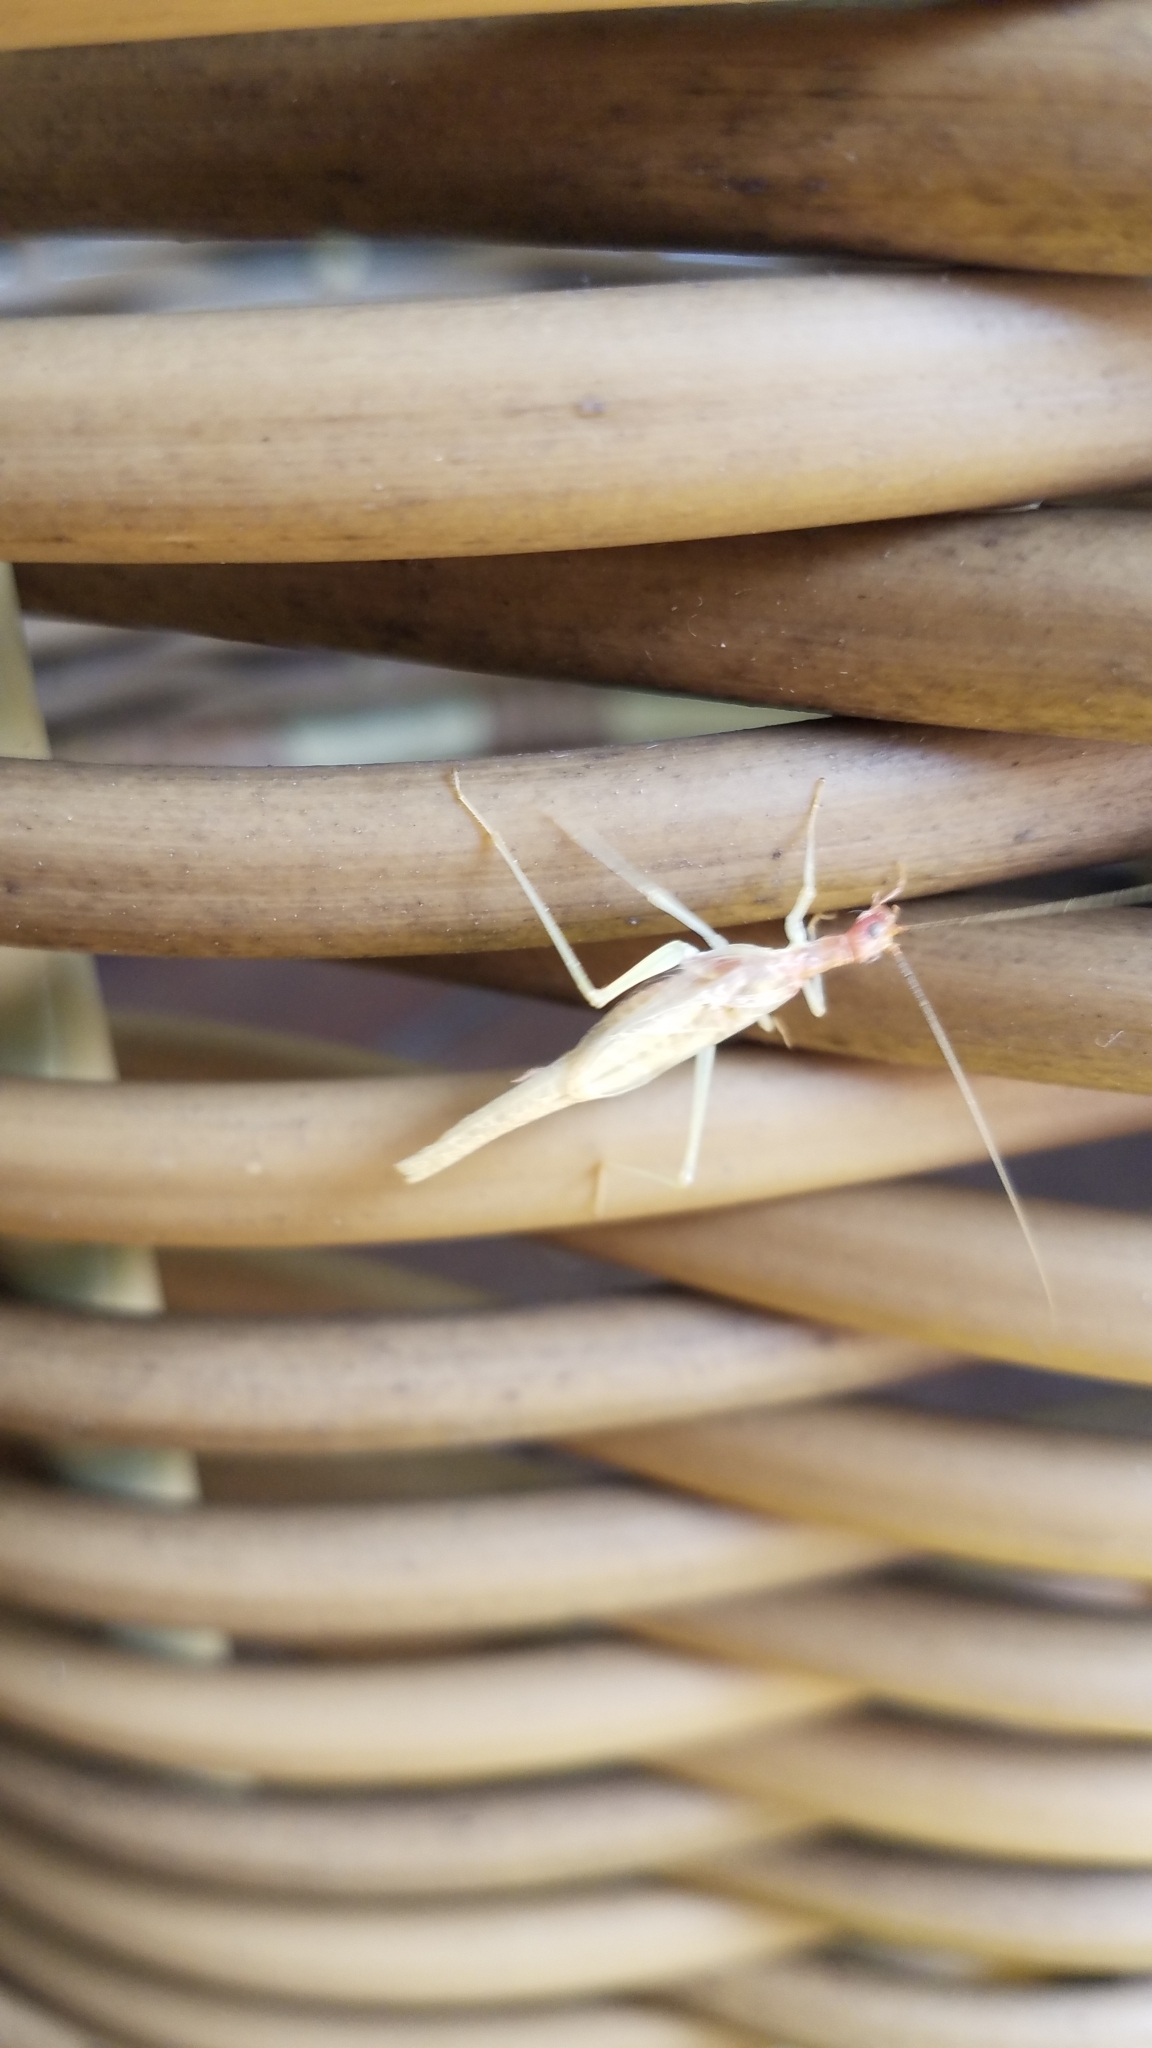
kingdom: Animalia
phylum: Arthropoda
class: Insecta
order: Orthoptera
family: Gryllidae
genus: Neoxabea
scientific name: Neoxabea bipunctata
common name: Two-spotted tree cricket
